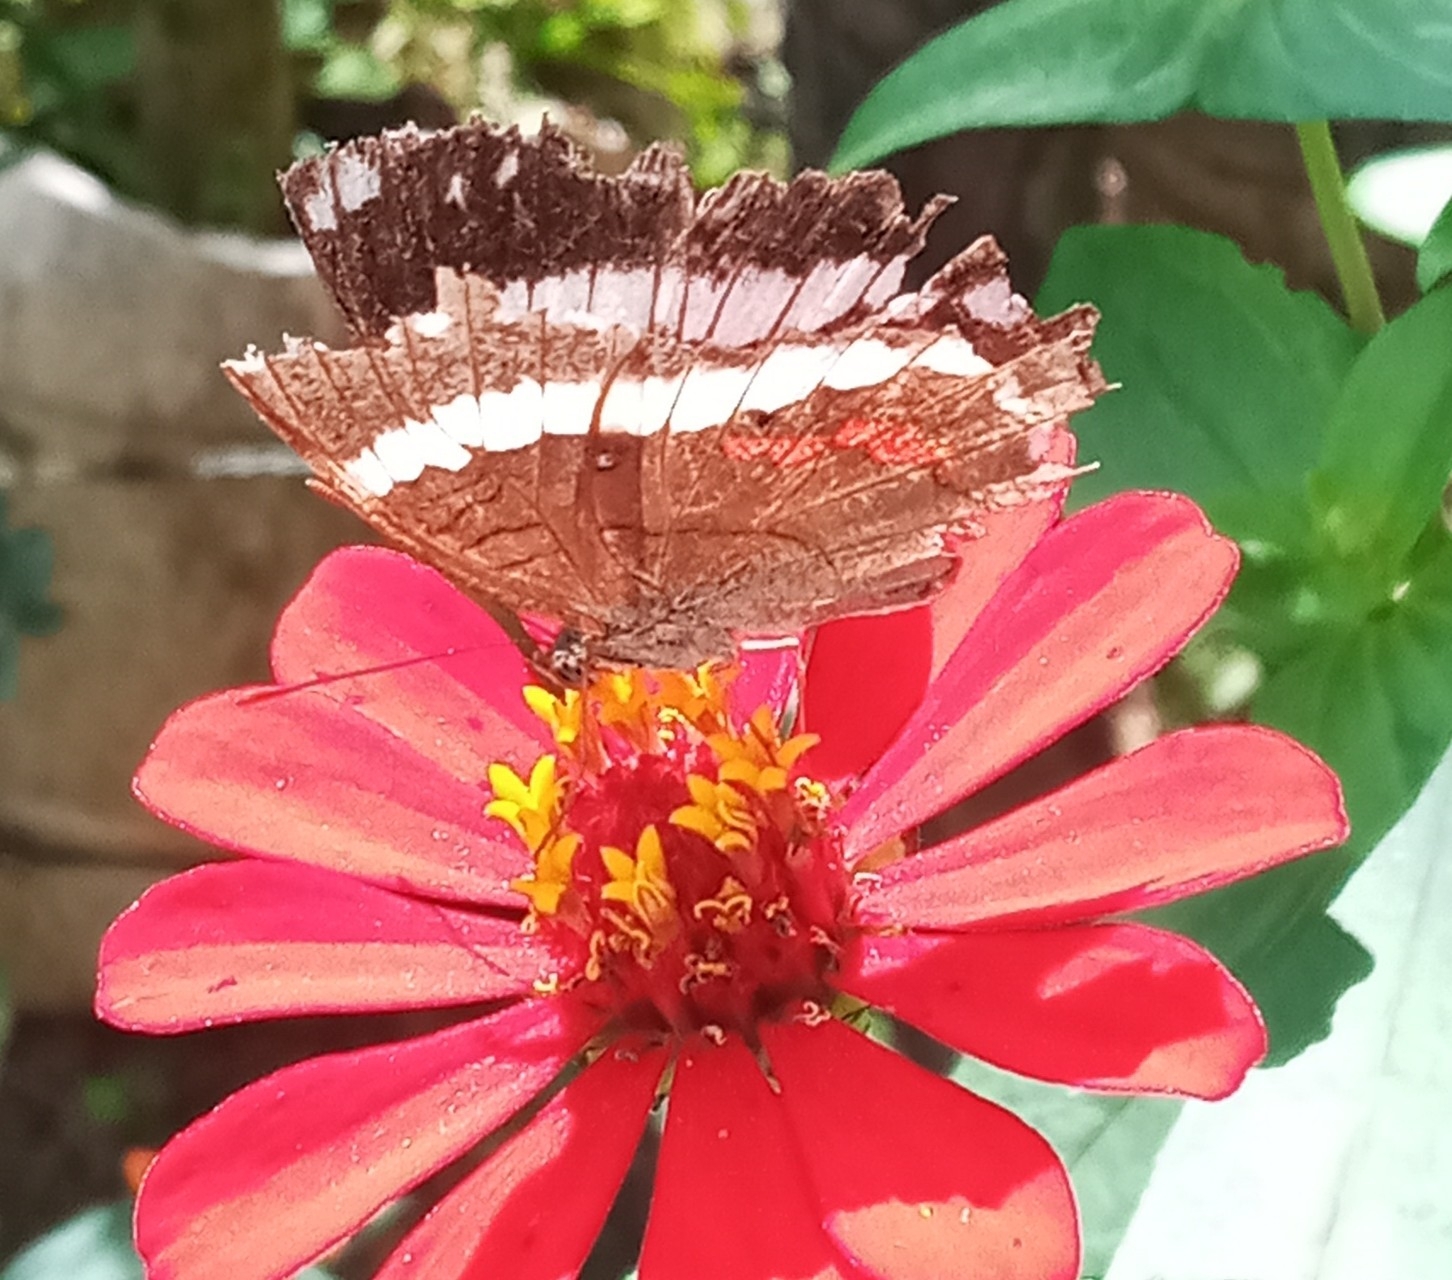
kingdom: Animalia
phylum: Arthropoda
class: Insecta
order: Lepidoptera
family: Nymphalidae
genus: Anartia
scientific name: Anartia fatima
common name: Banded peacock
